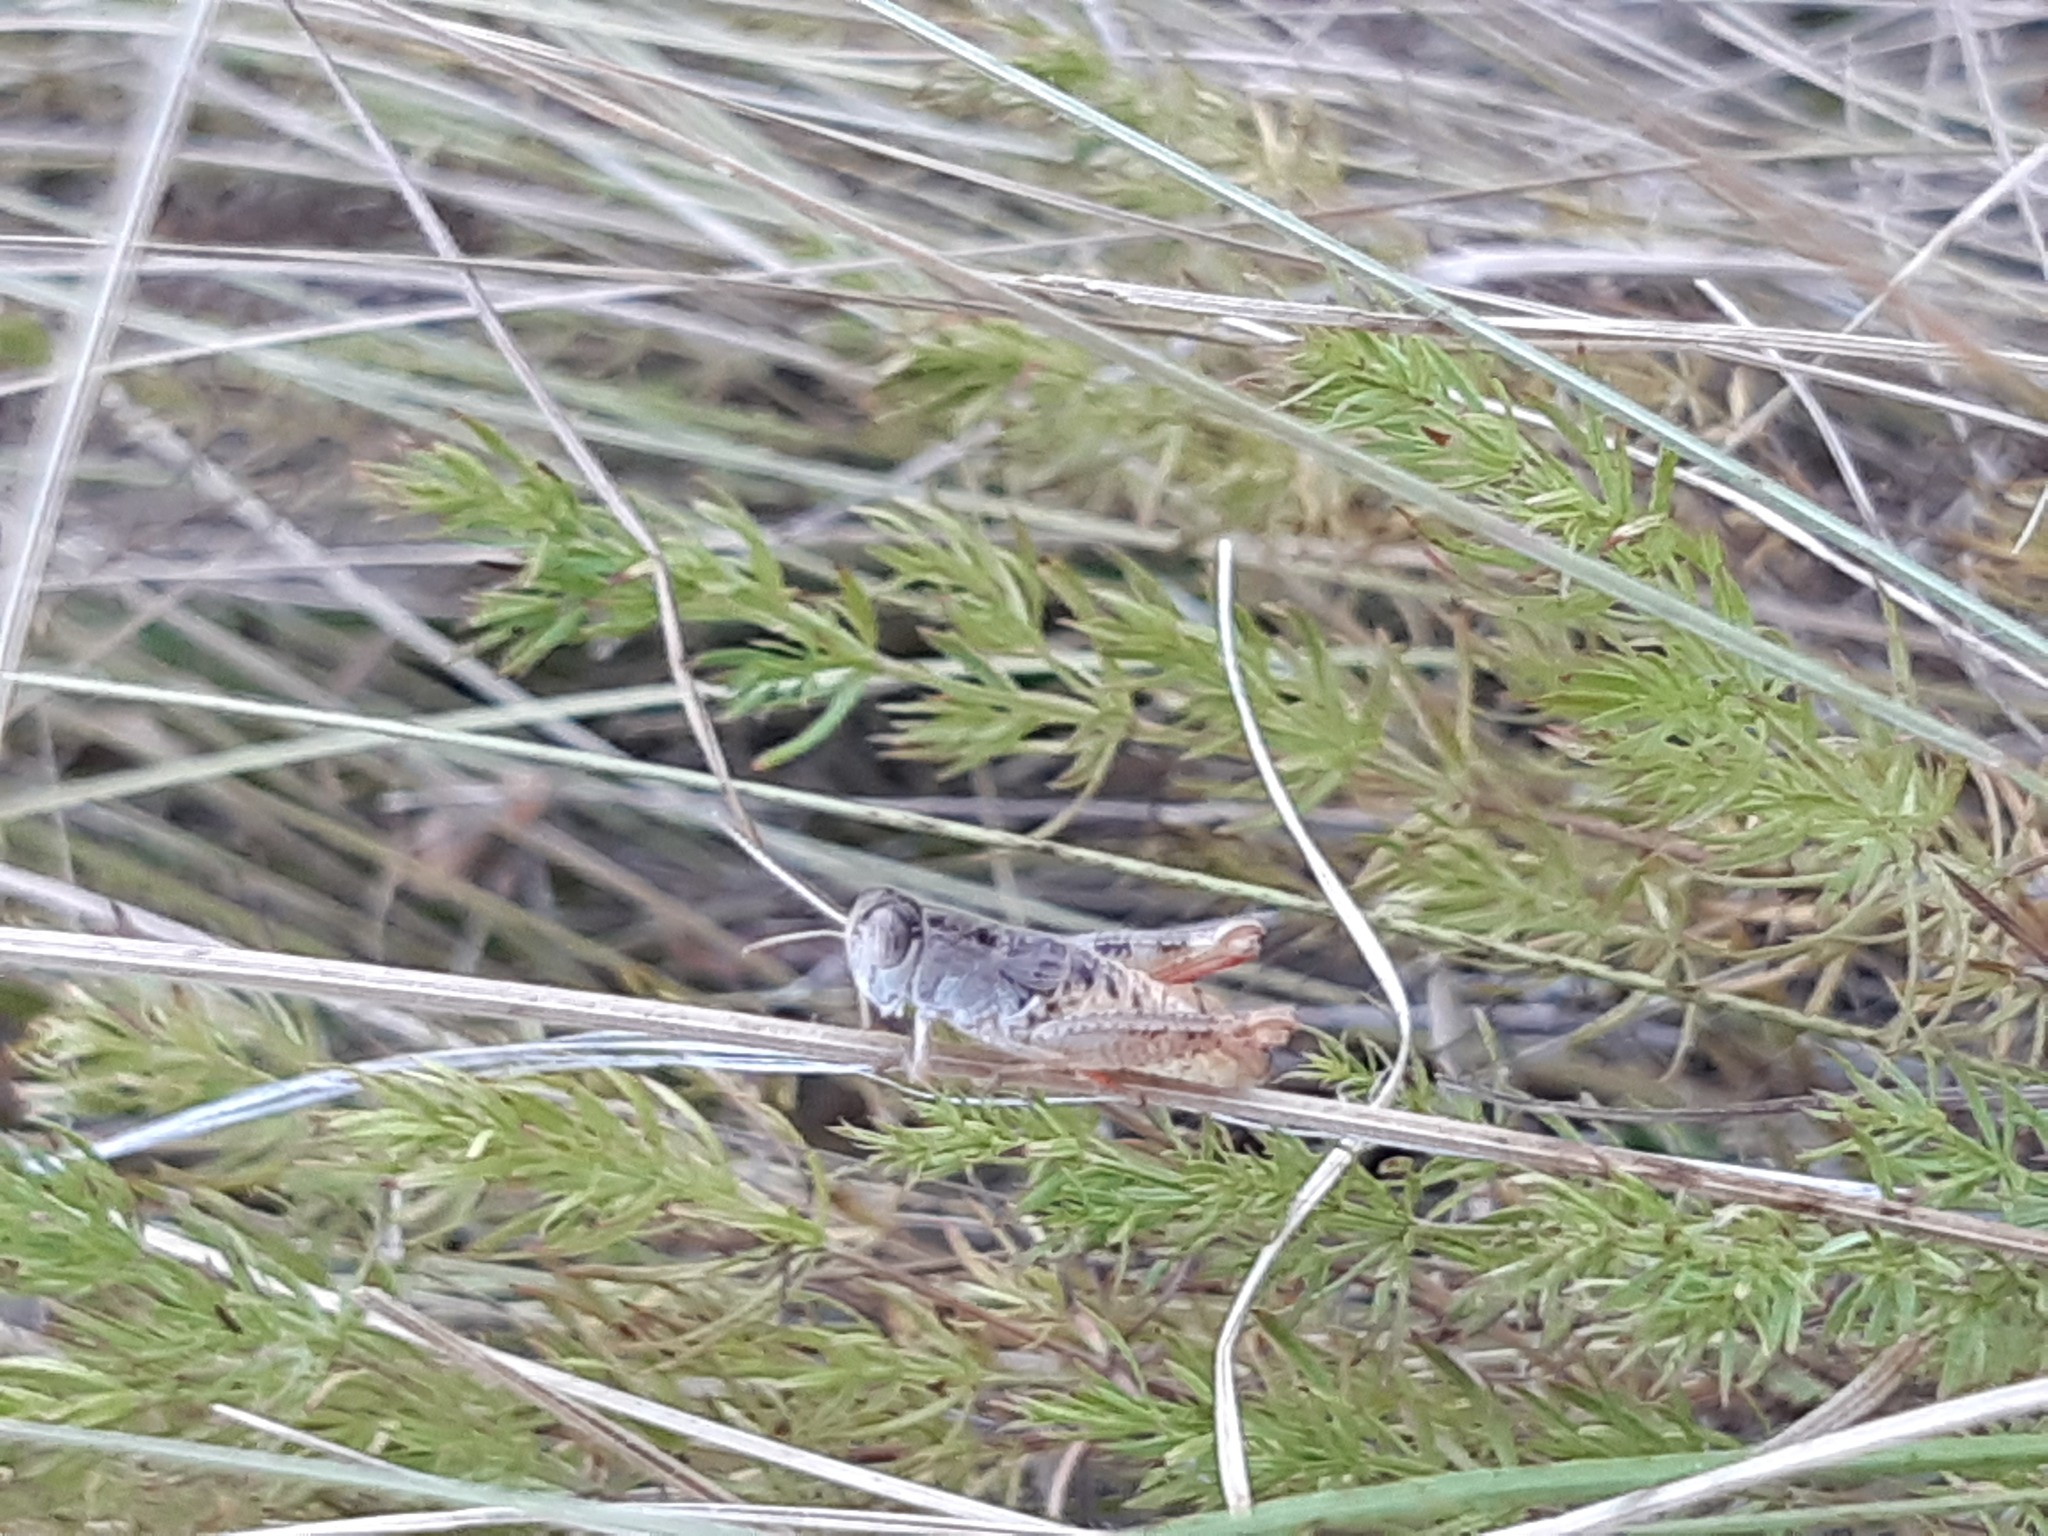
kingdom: Animalia
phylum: Arthropoda
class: Insecta
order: Orthoptera
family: Acrididae
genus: Paracaloptenus
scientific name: Paracaloptenus cristatus
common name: Istrian pincer grasshopper
